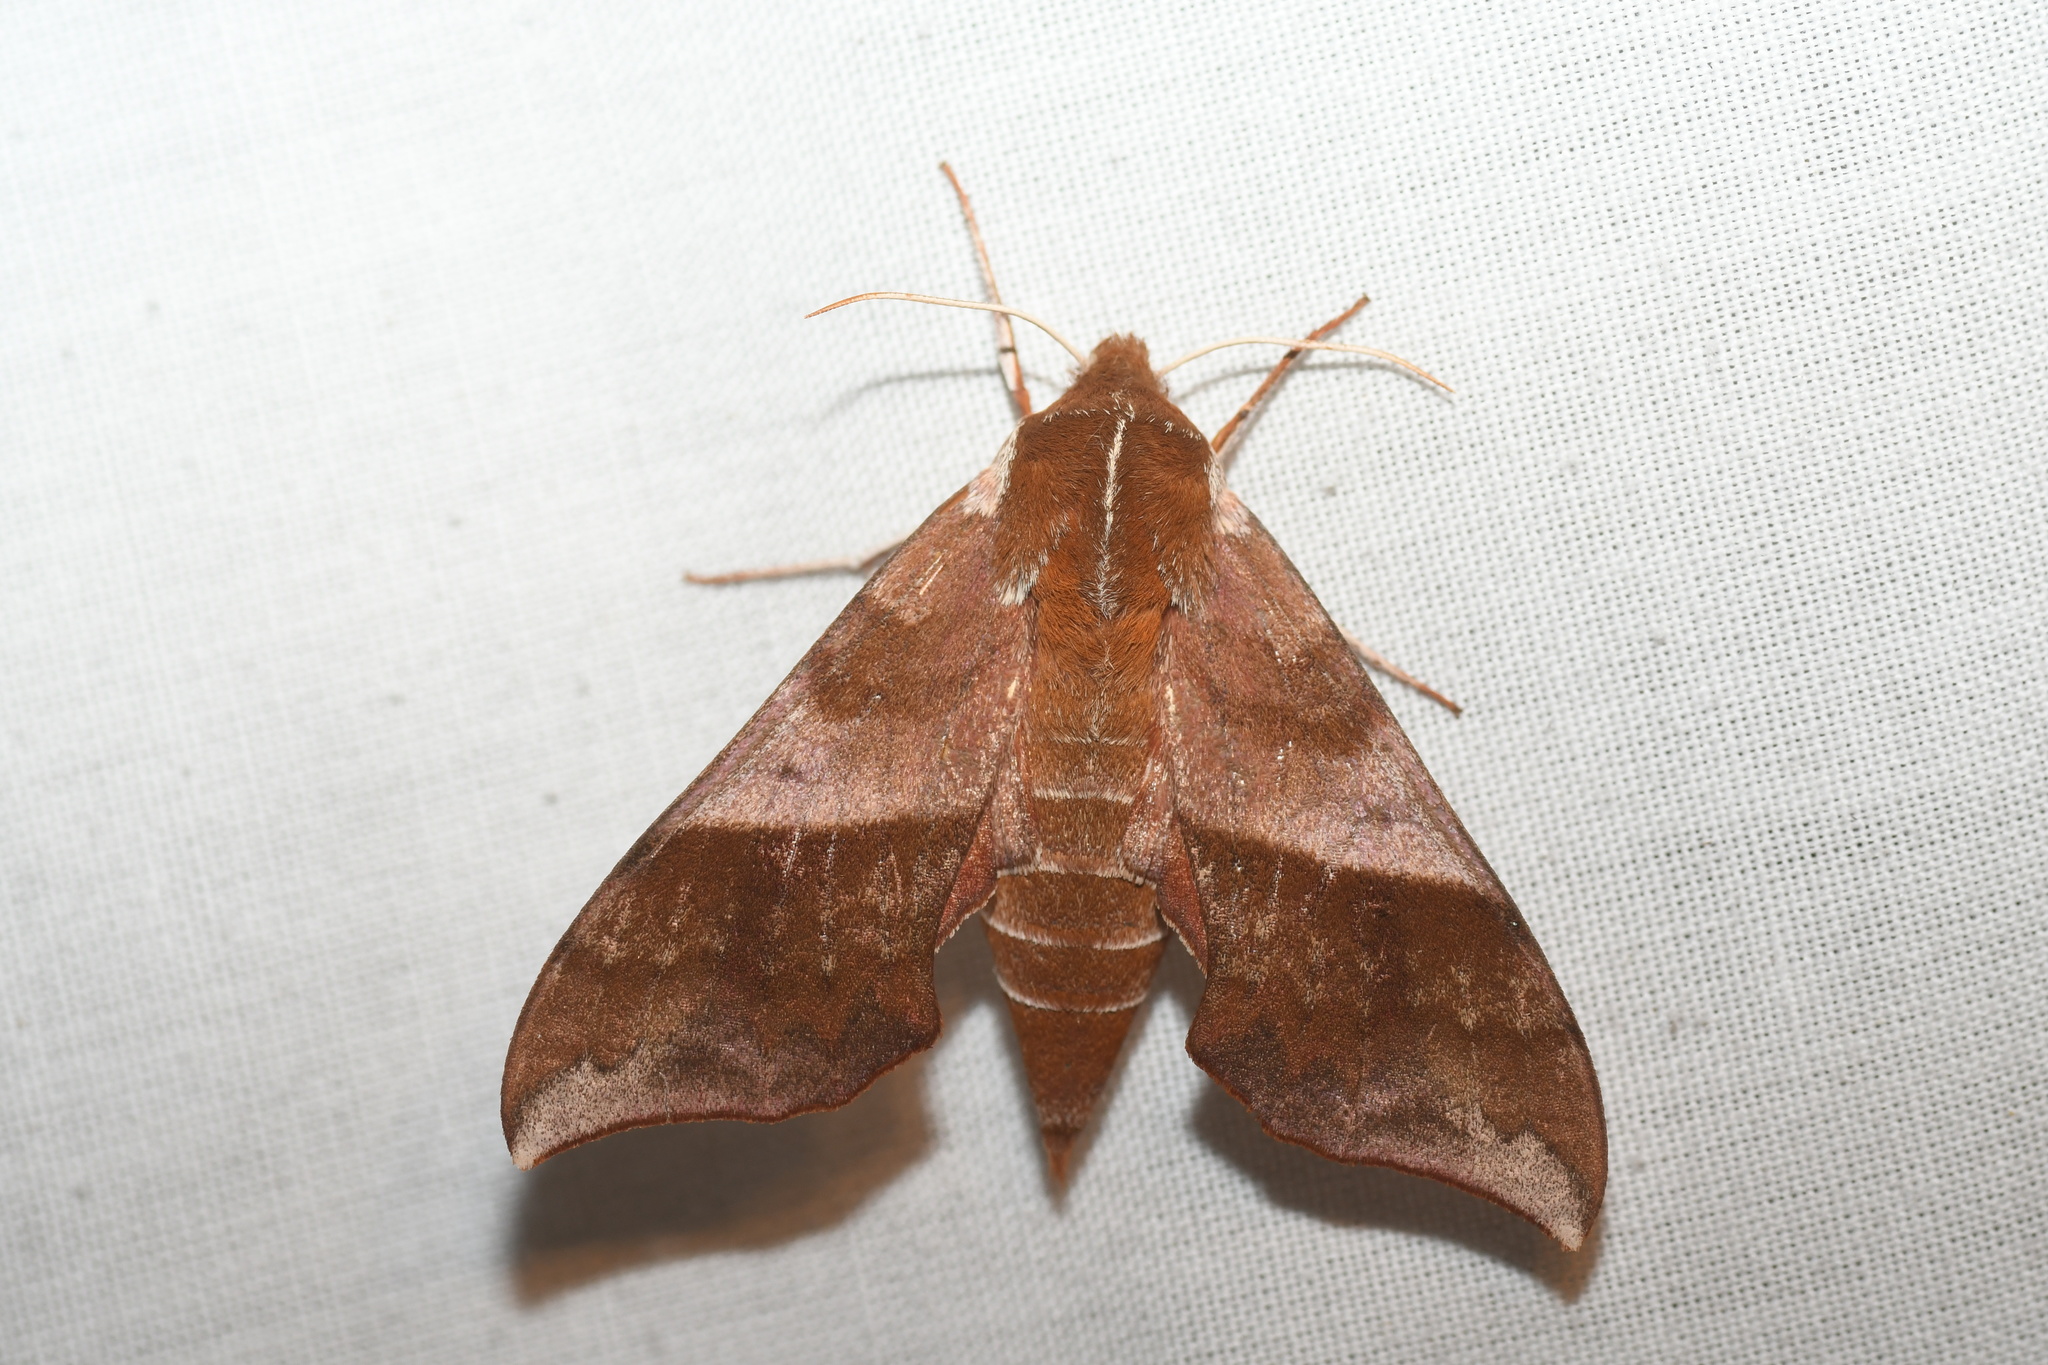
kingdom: Animalia
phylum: Arthropoda
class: Insecta
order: Lepidoptera
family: Sphingidae
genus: Darapsa
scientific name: Darapsa choerilus
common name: Azalea sphinx
